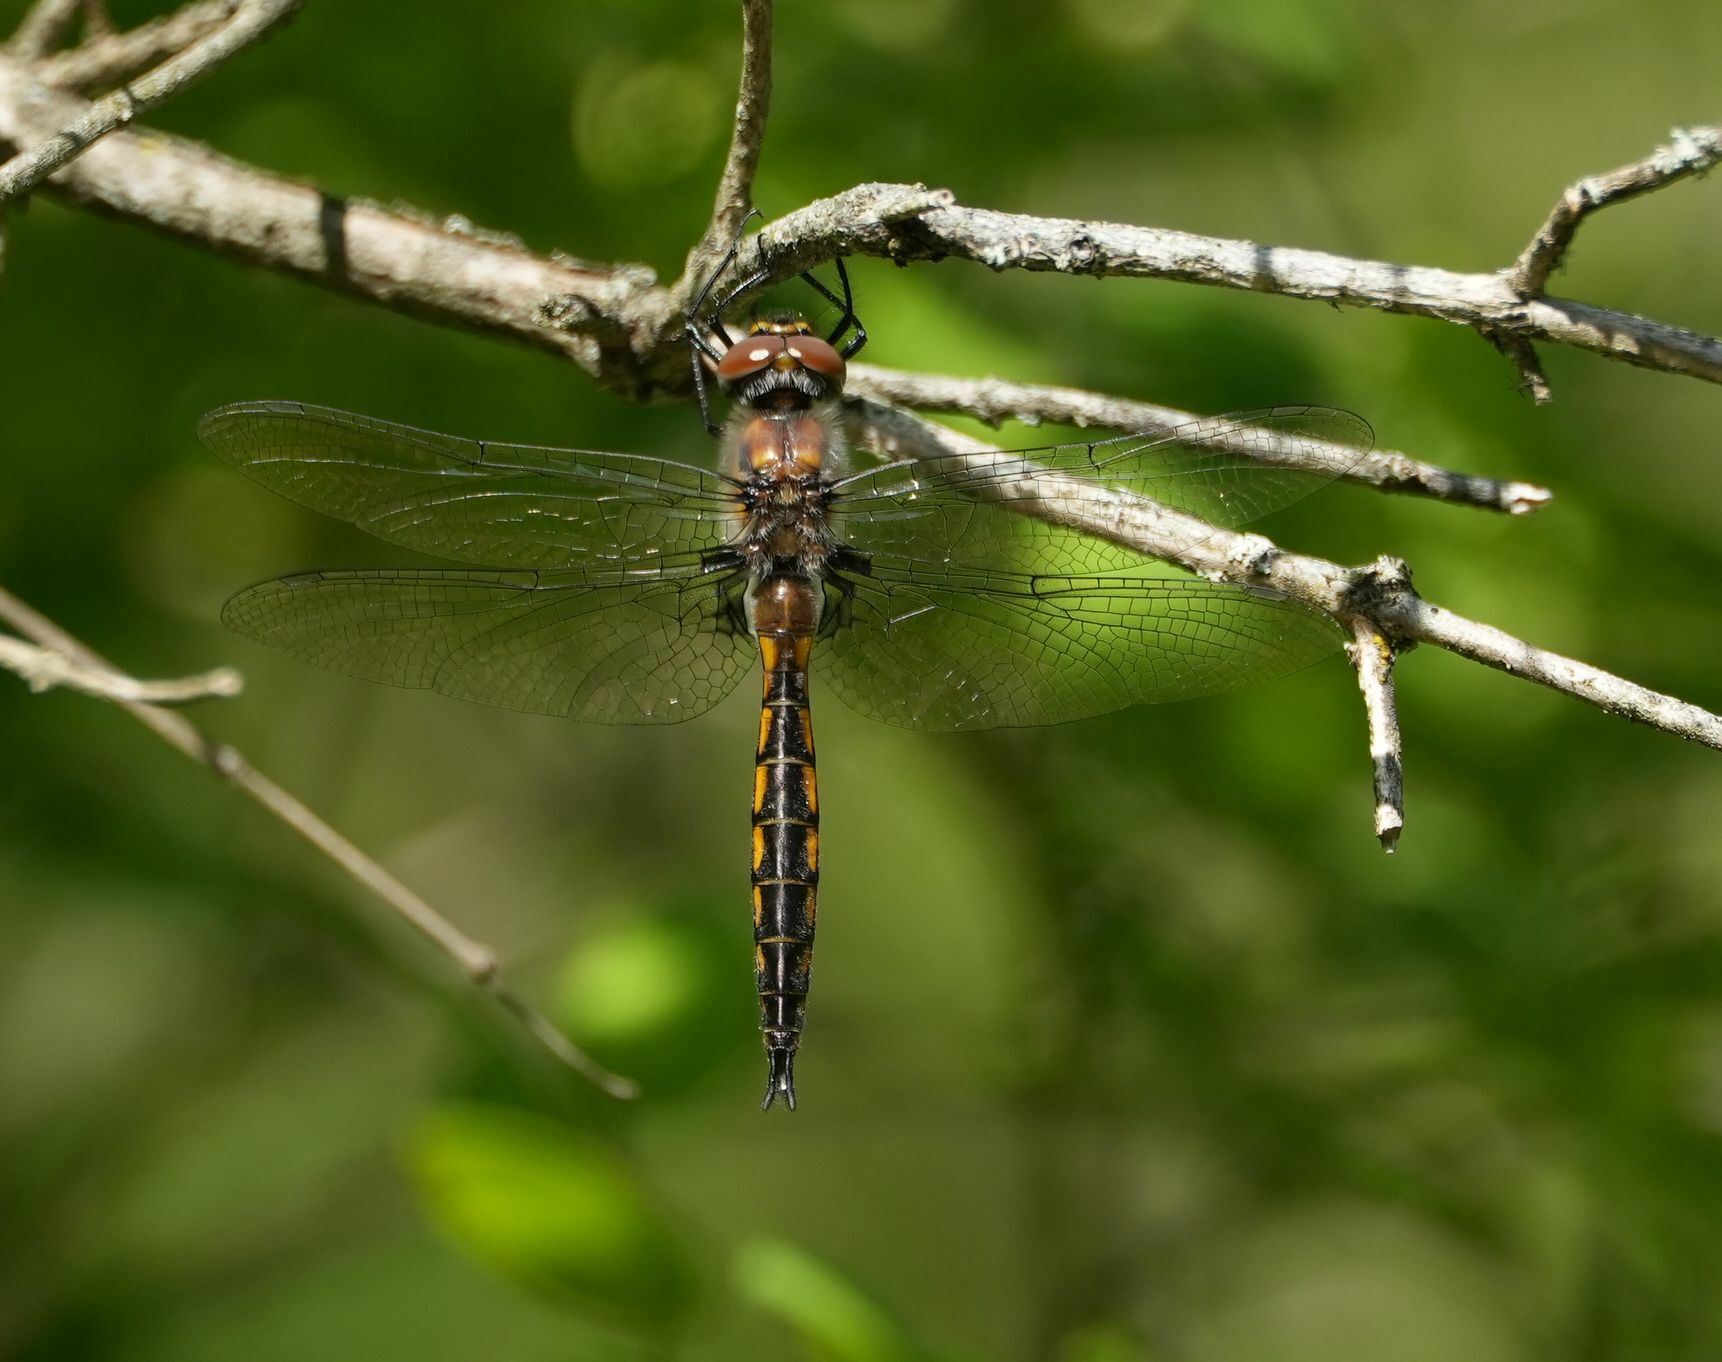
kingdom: Animalia
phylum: Arthropoda
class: Insecta
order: Odonata
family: Corduliidae
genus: Epitheca
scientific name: Epitheca spinigera
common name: Spiny baskettail
